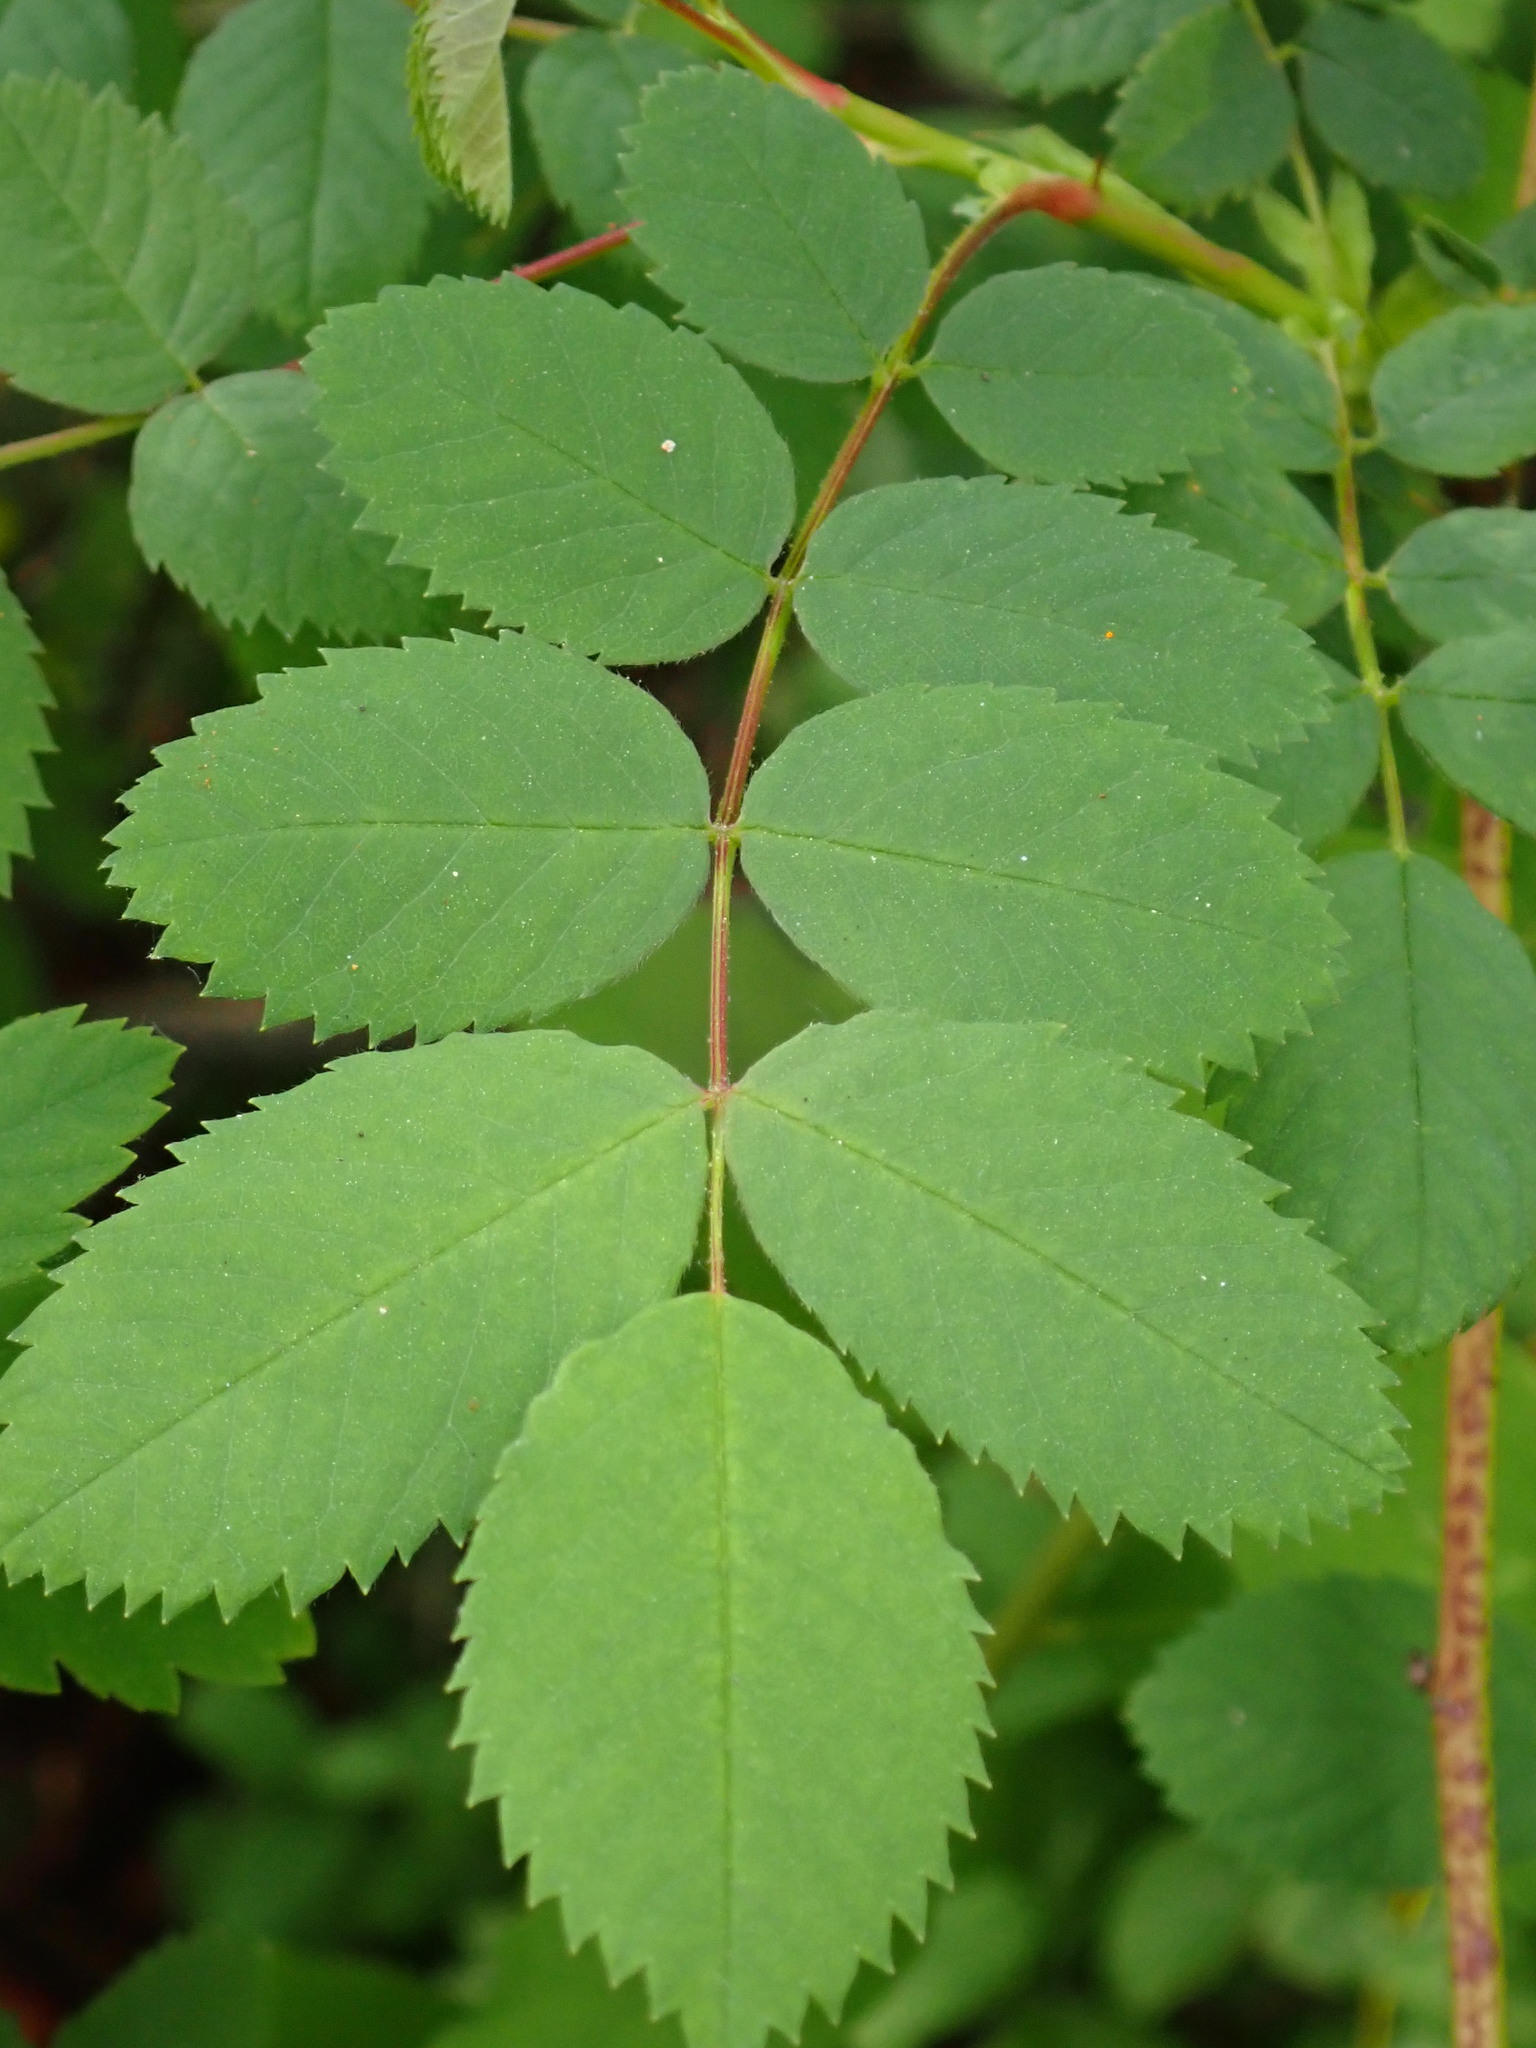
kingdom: Plantae
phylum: Tracheophyta
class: Magnoliopsida
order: Rosales
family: Rosaceae
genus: Rosa
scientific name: Rosa nutkana
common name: Nootka rose
